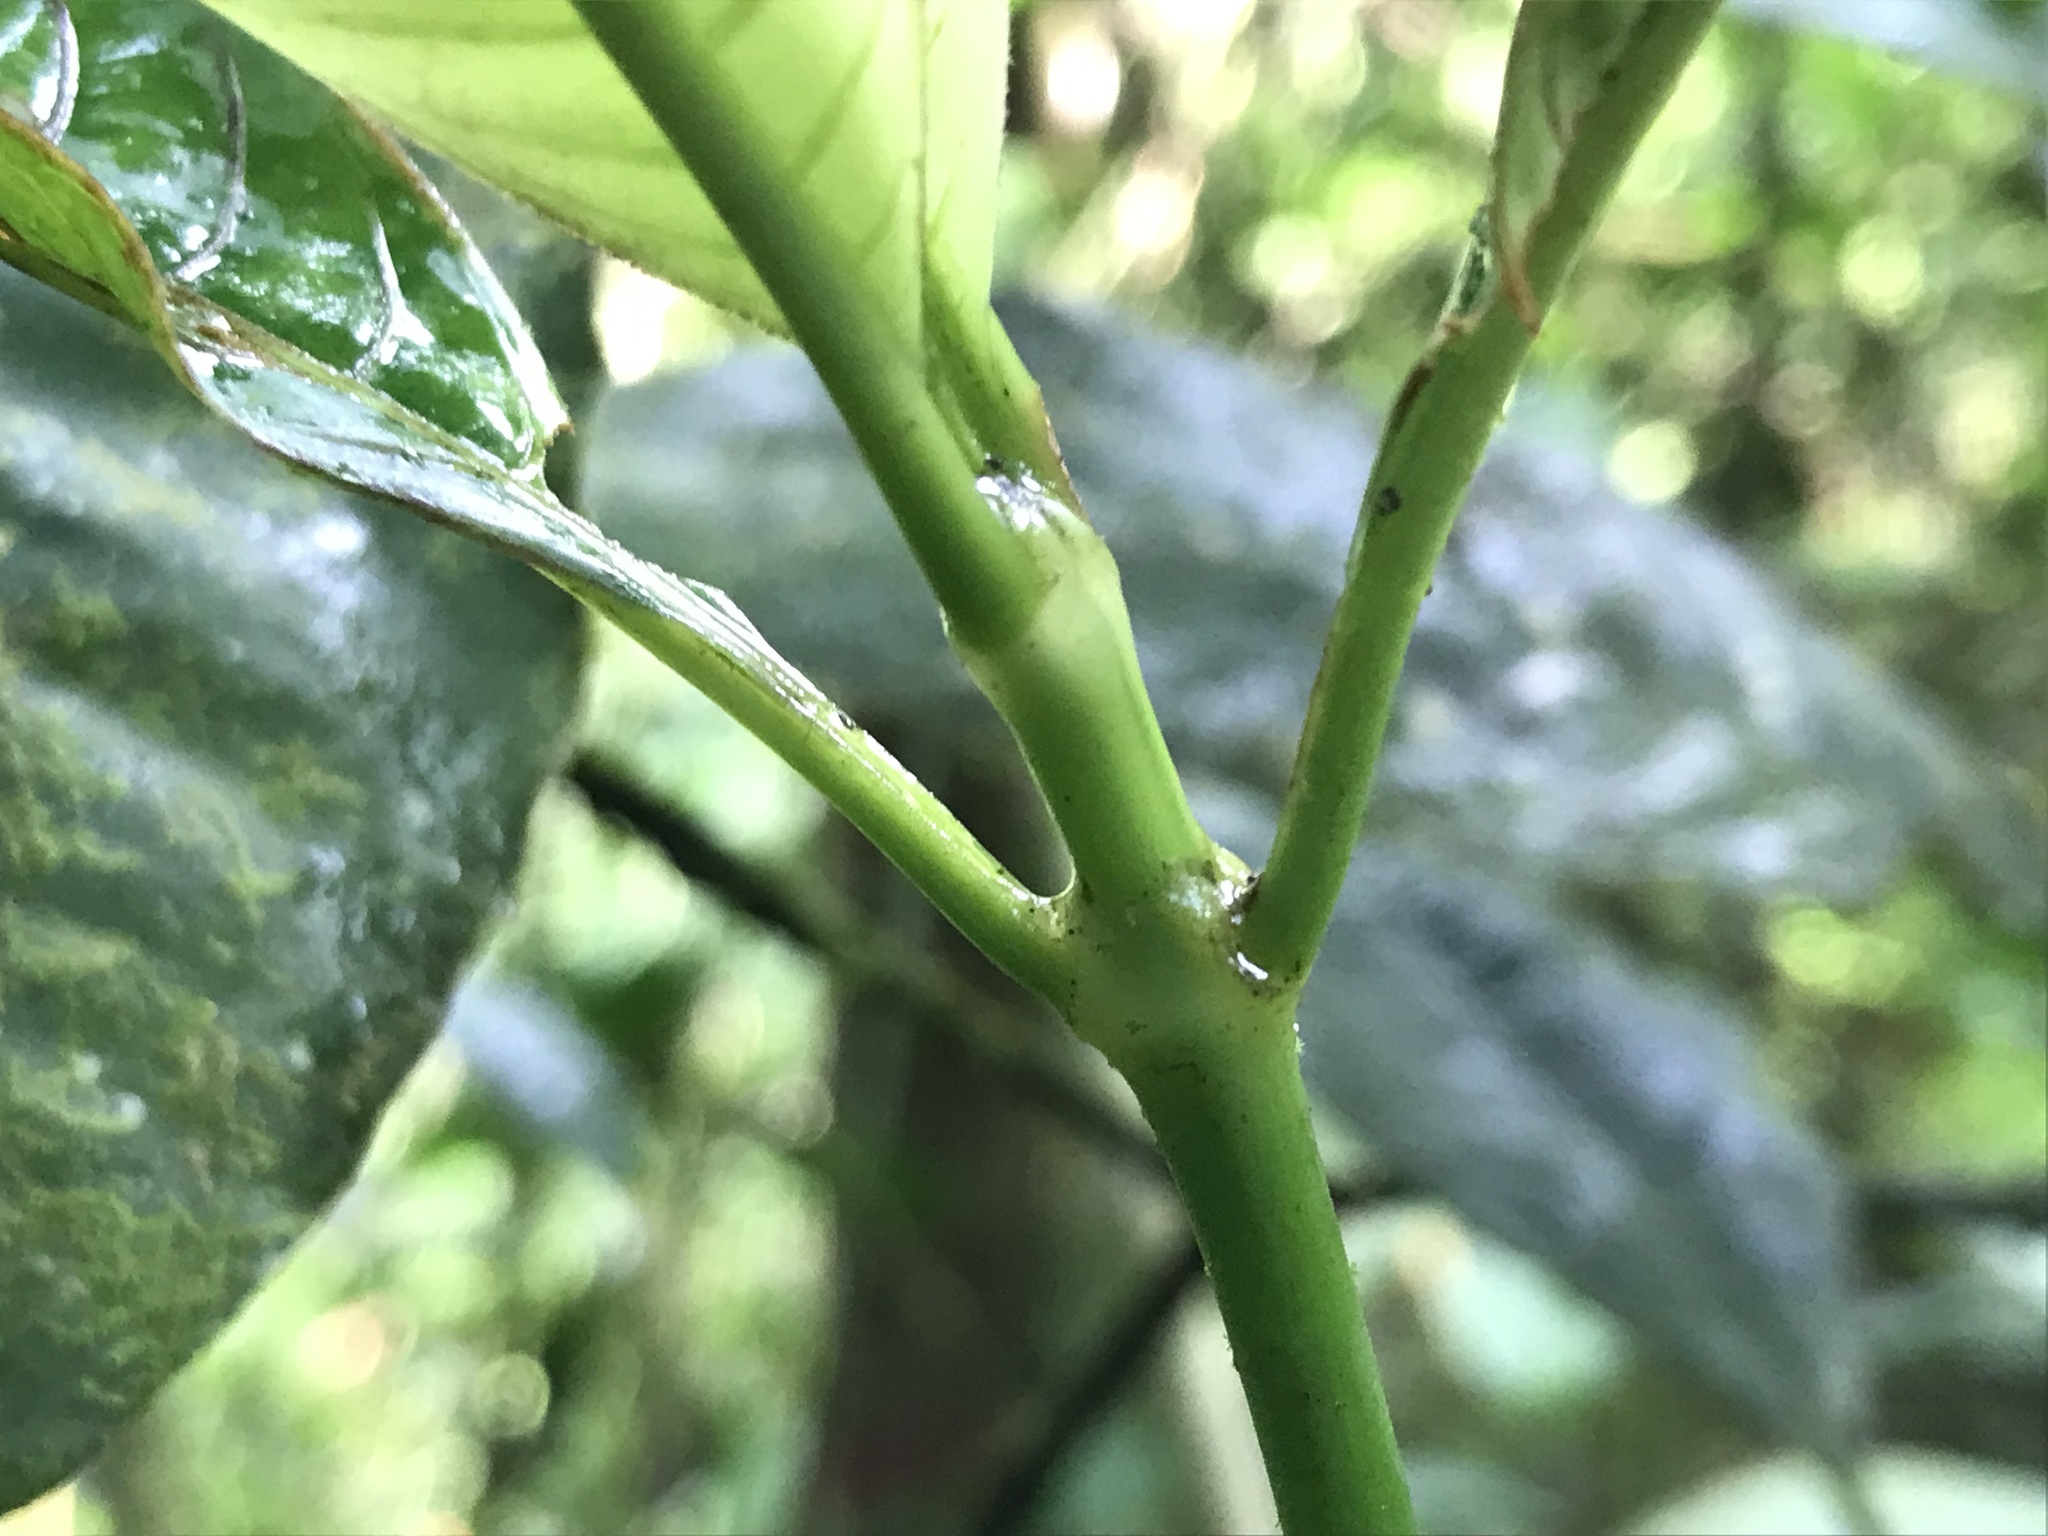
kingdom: Plantae
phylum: Tracheophyta
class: Magnoliopsida
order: Gentianales
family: Rubiaceae
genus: Palicourea
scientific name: Palicourea brachiata
